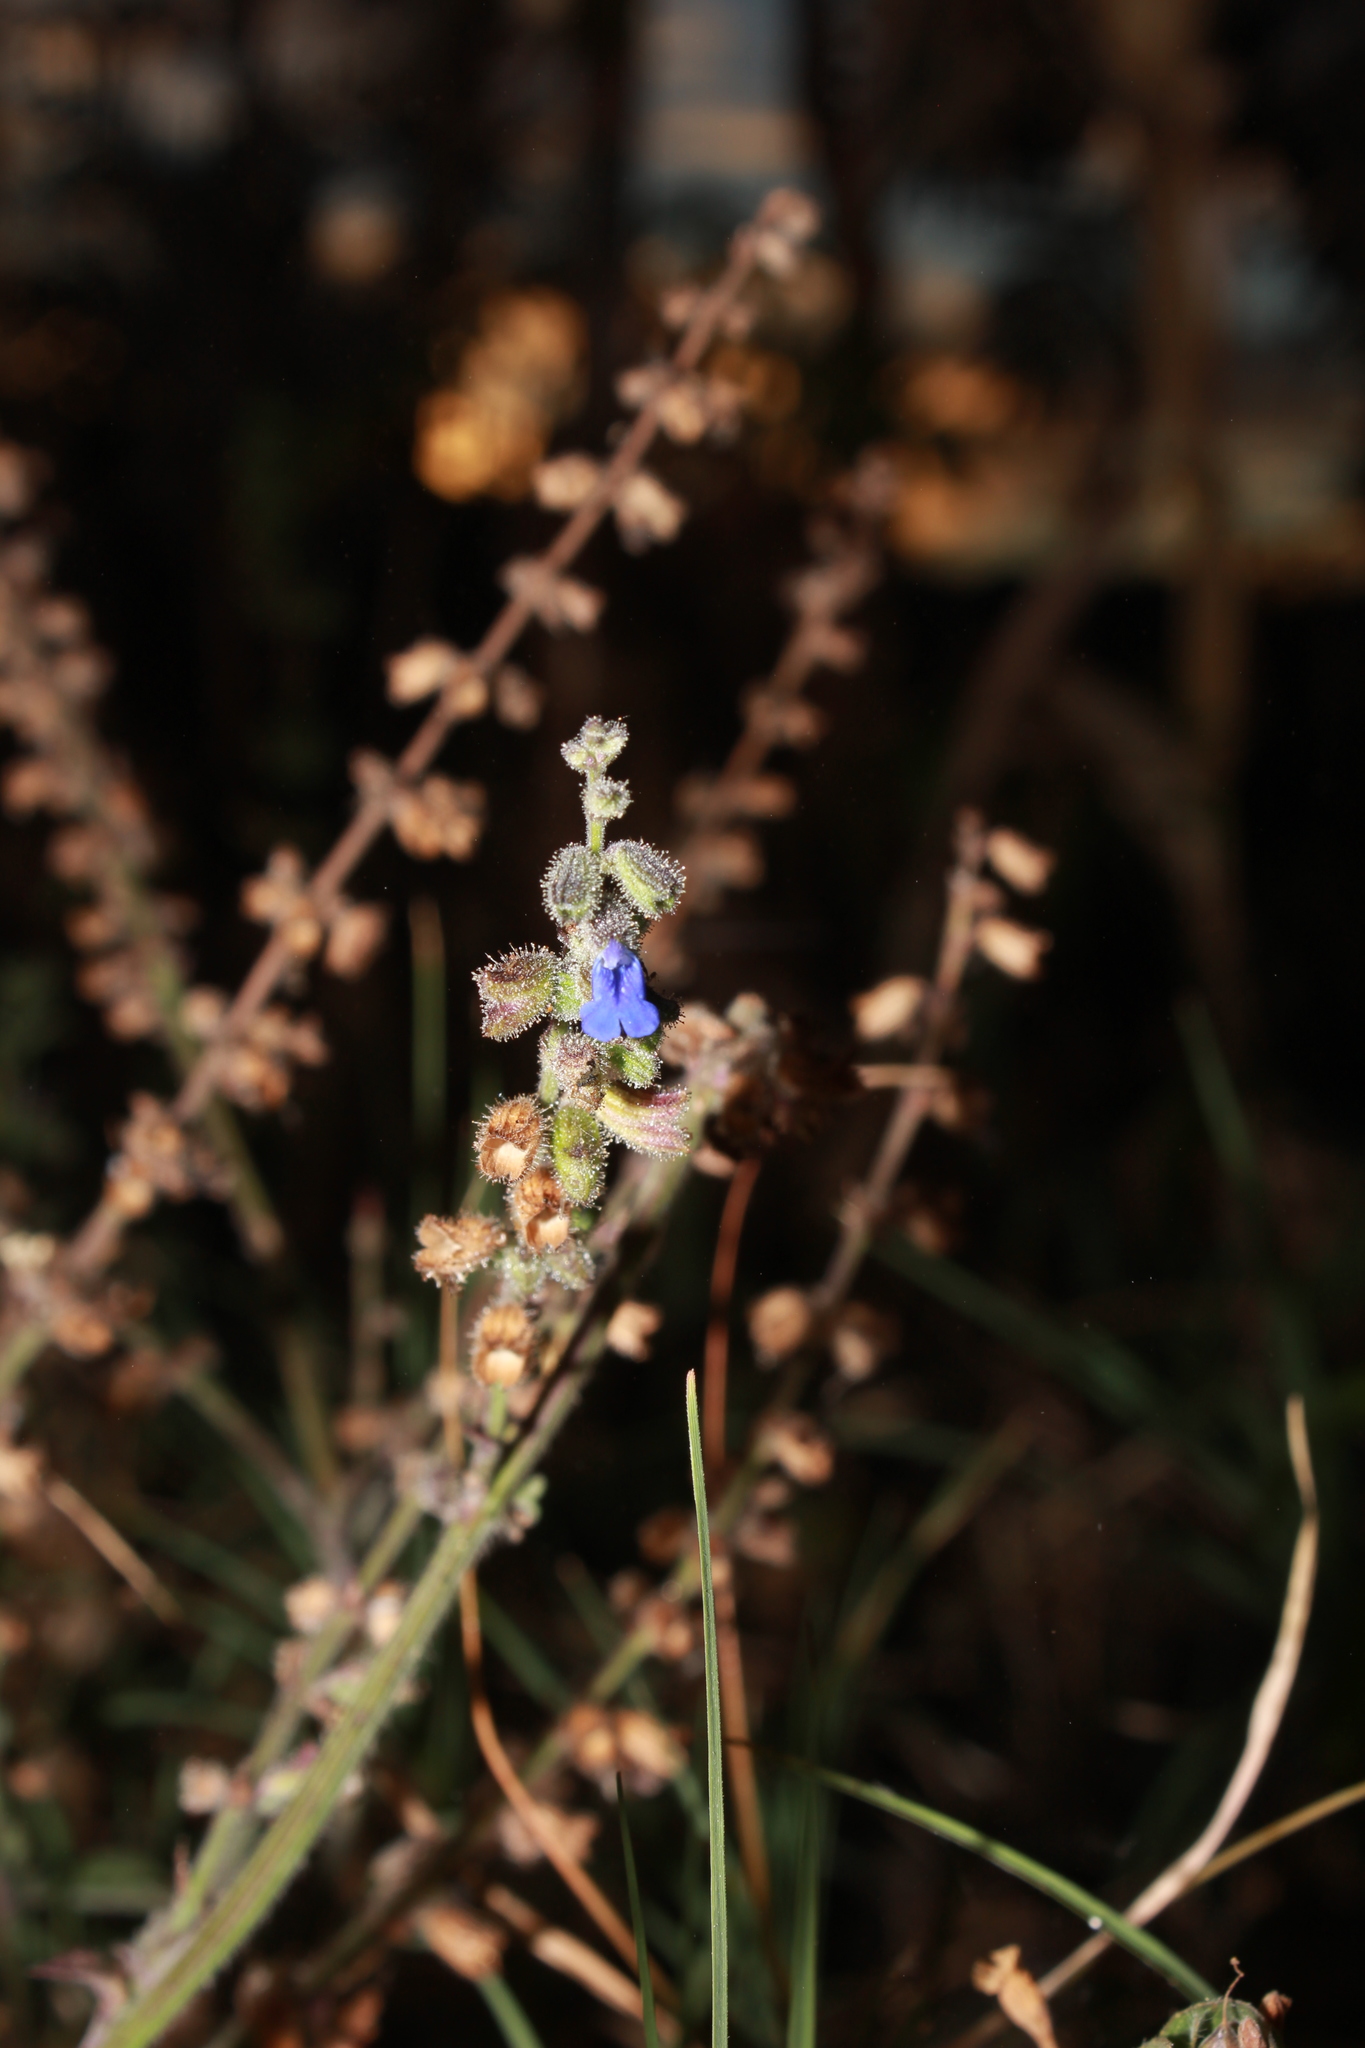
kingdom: Plantae
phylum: Tracheophyta
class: Magnoliopsida
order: Lamiales
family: Lamiaceae
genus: Salvia
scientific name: Salvia misella
